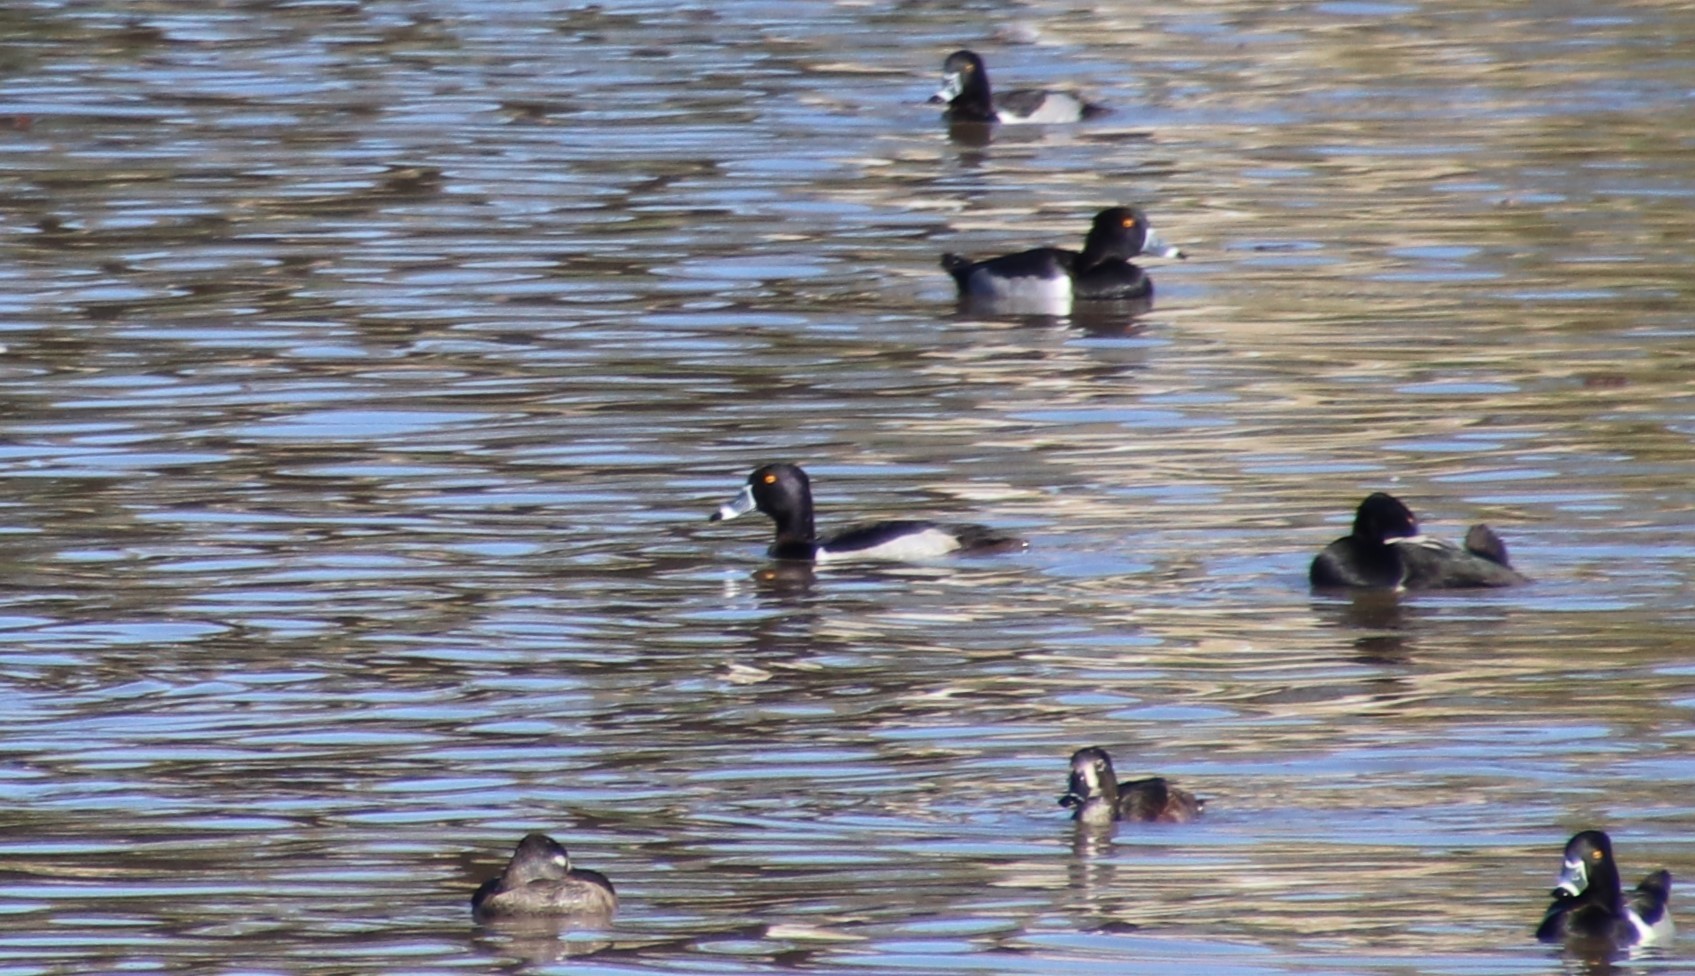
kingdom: Animalia
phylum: Chordata
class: Aves
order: Anseriformes
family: Anatidae
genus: Aythya
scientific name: Aythya collaris
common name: Ring-necked duck
